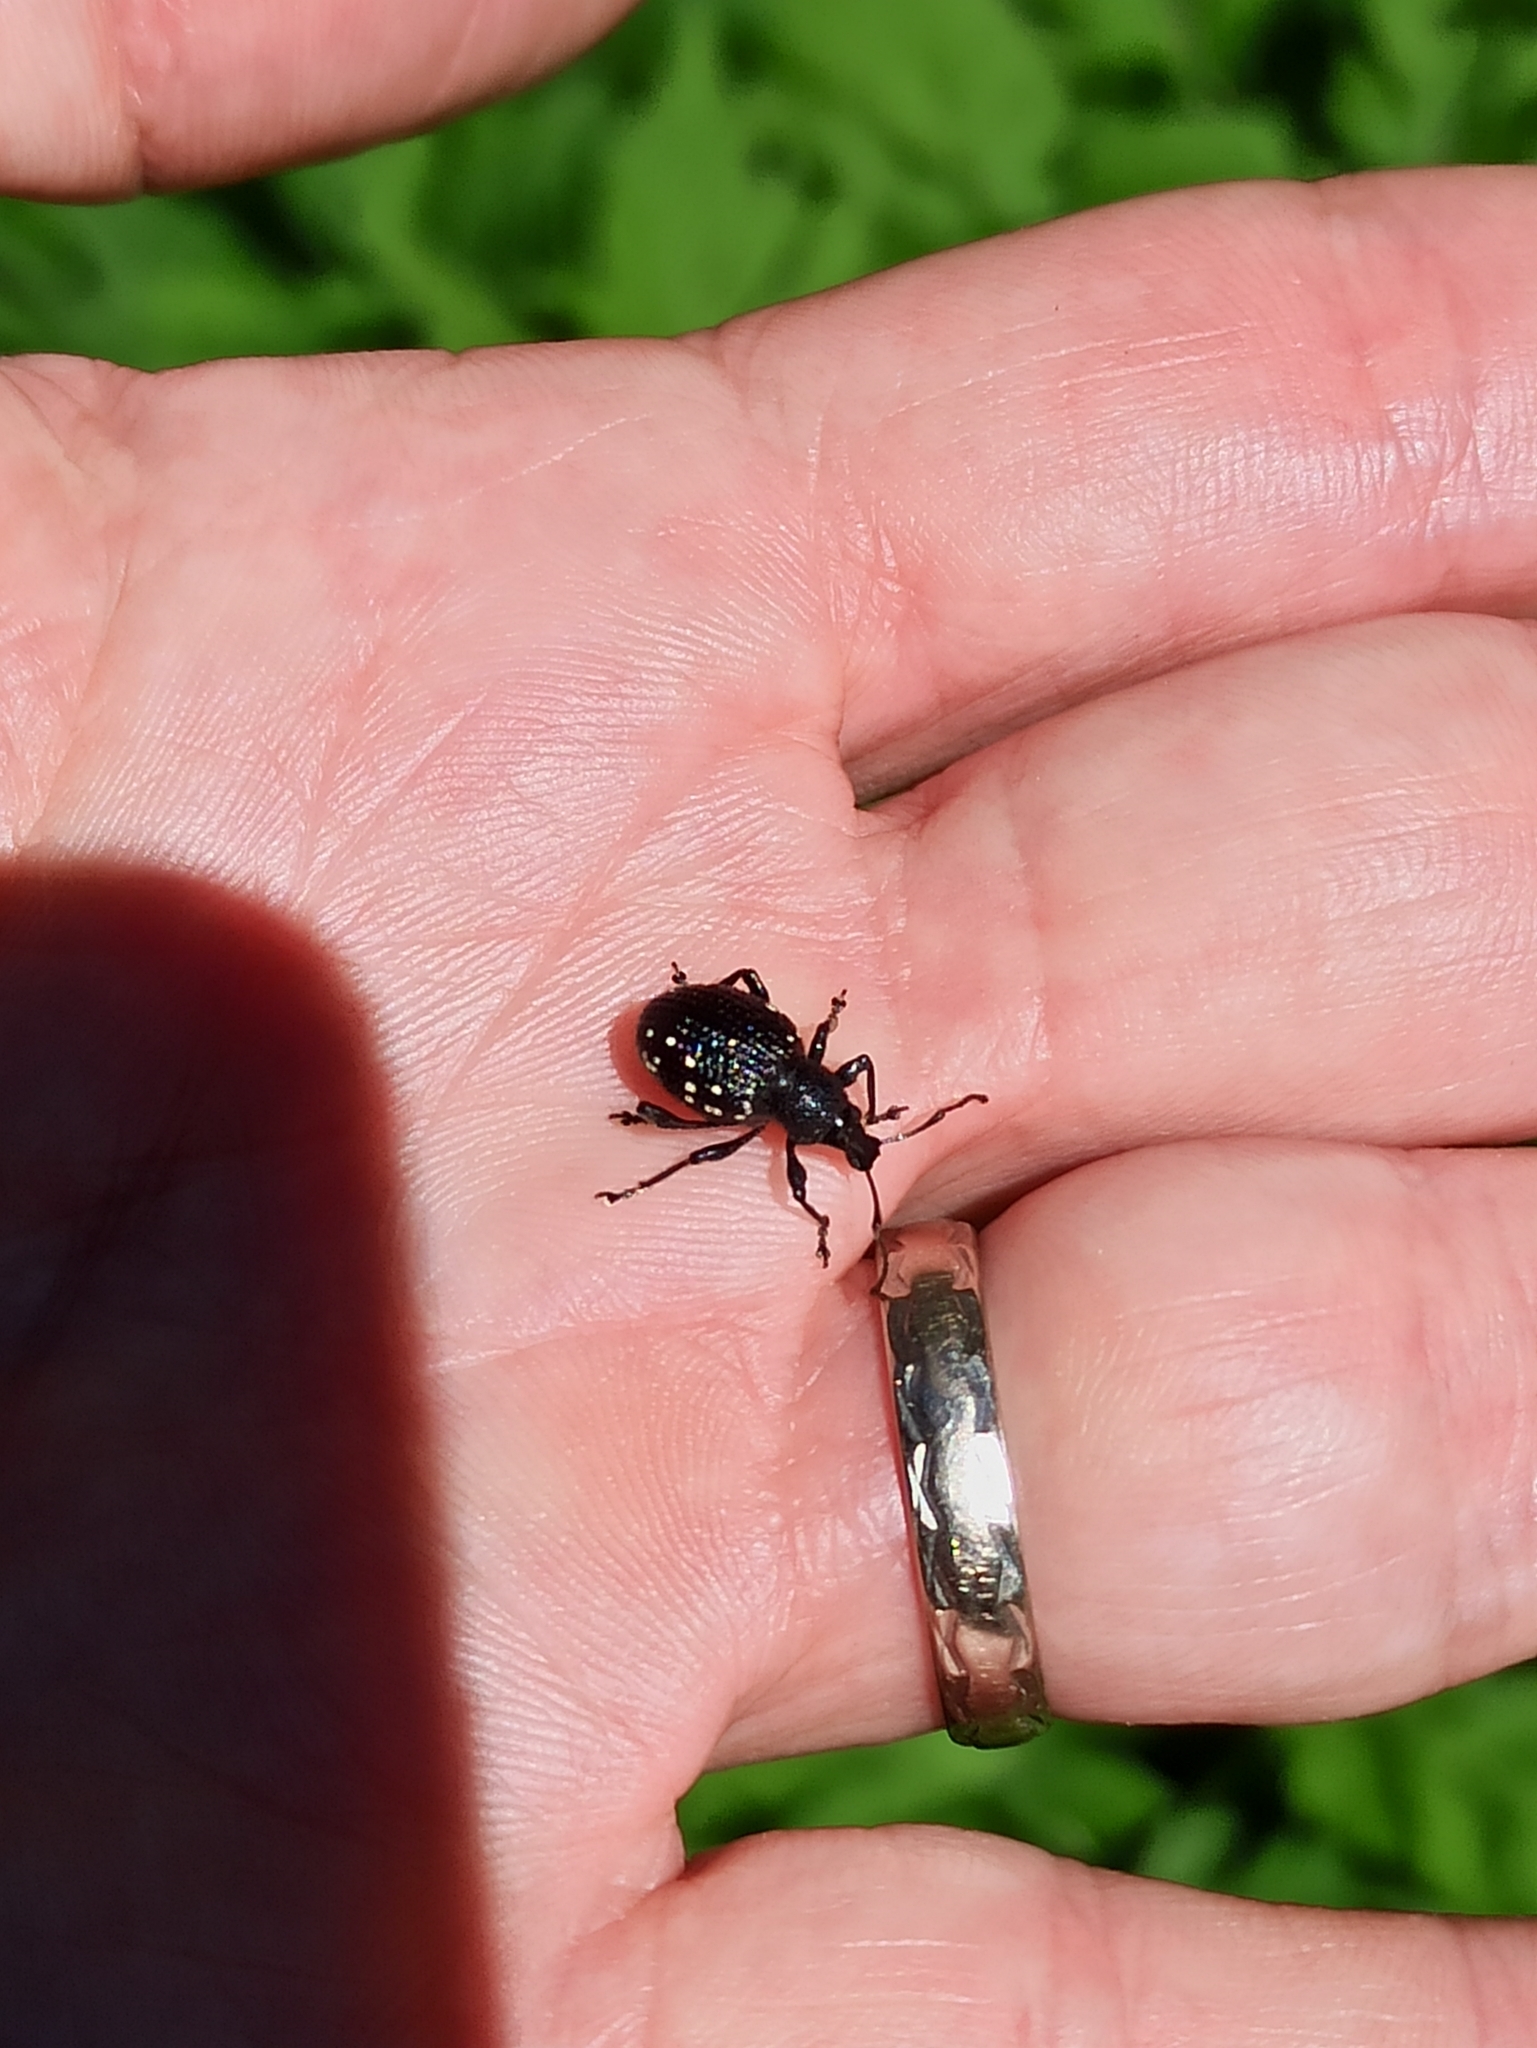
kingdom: Animalia
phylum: Arthropoda
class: Insecta
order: Coleoptera
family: Curculionidae
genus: Otiorhynchus
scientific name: Otiorhynchus gemmatus
